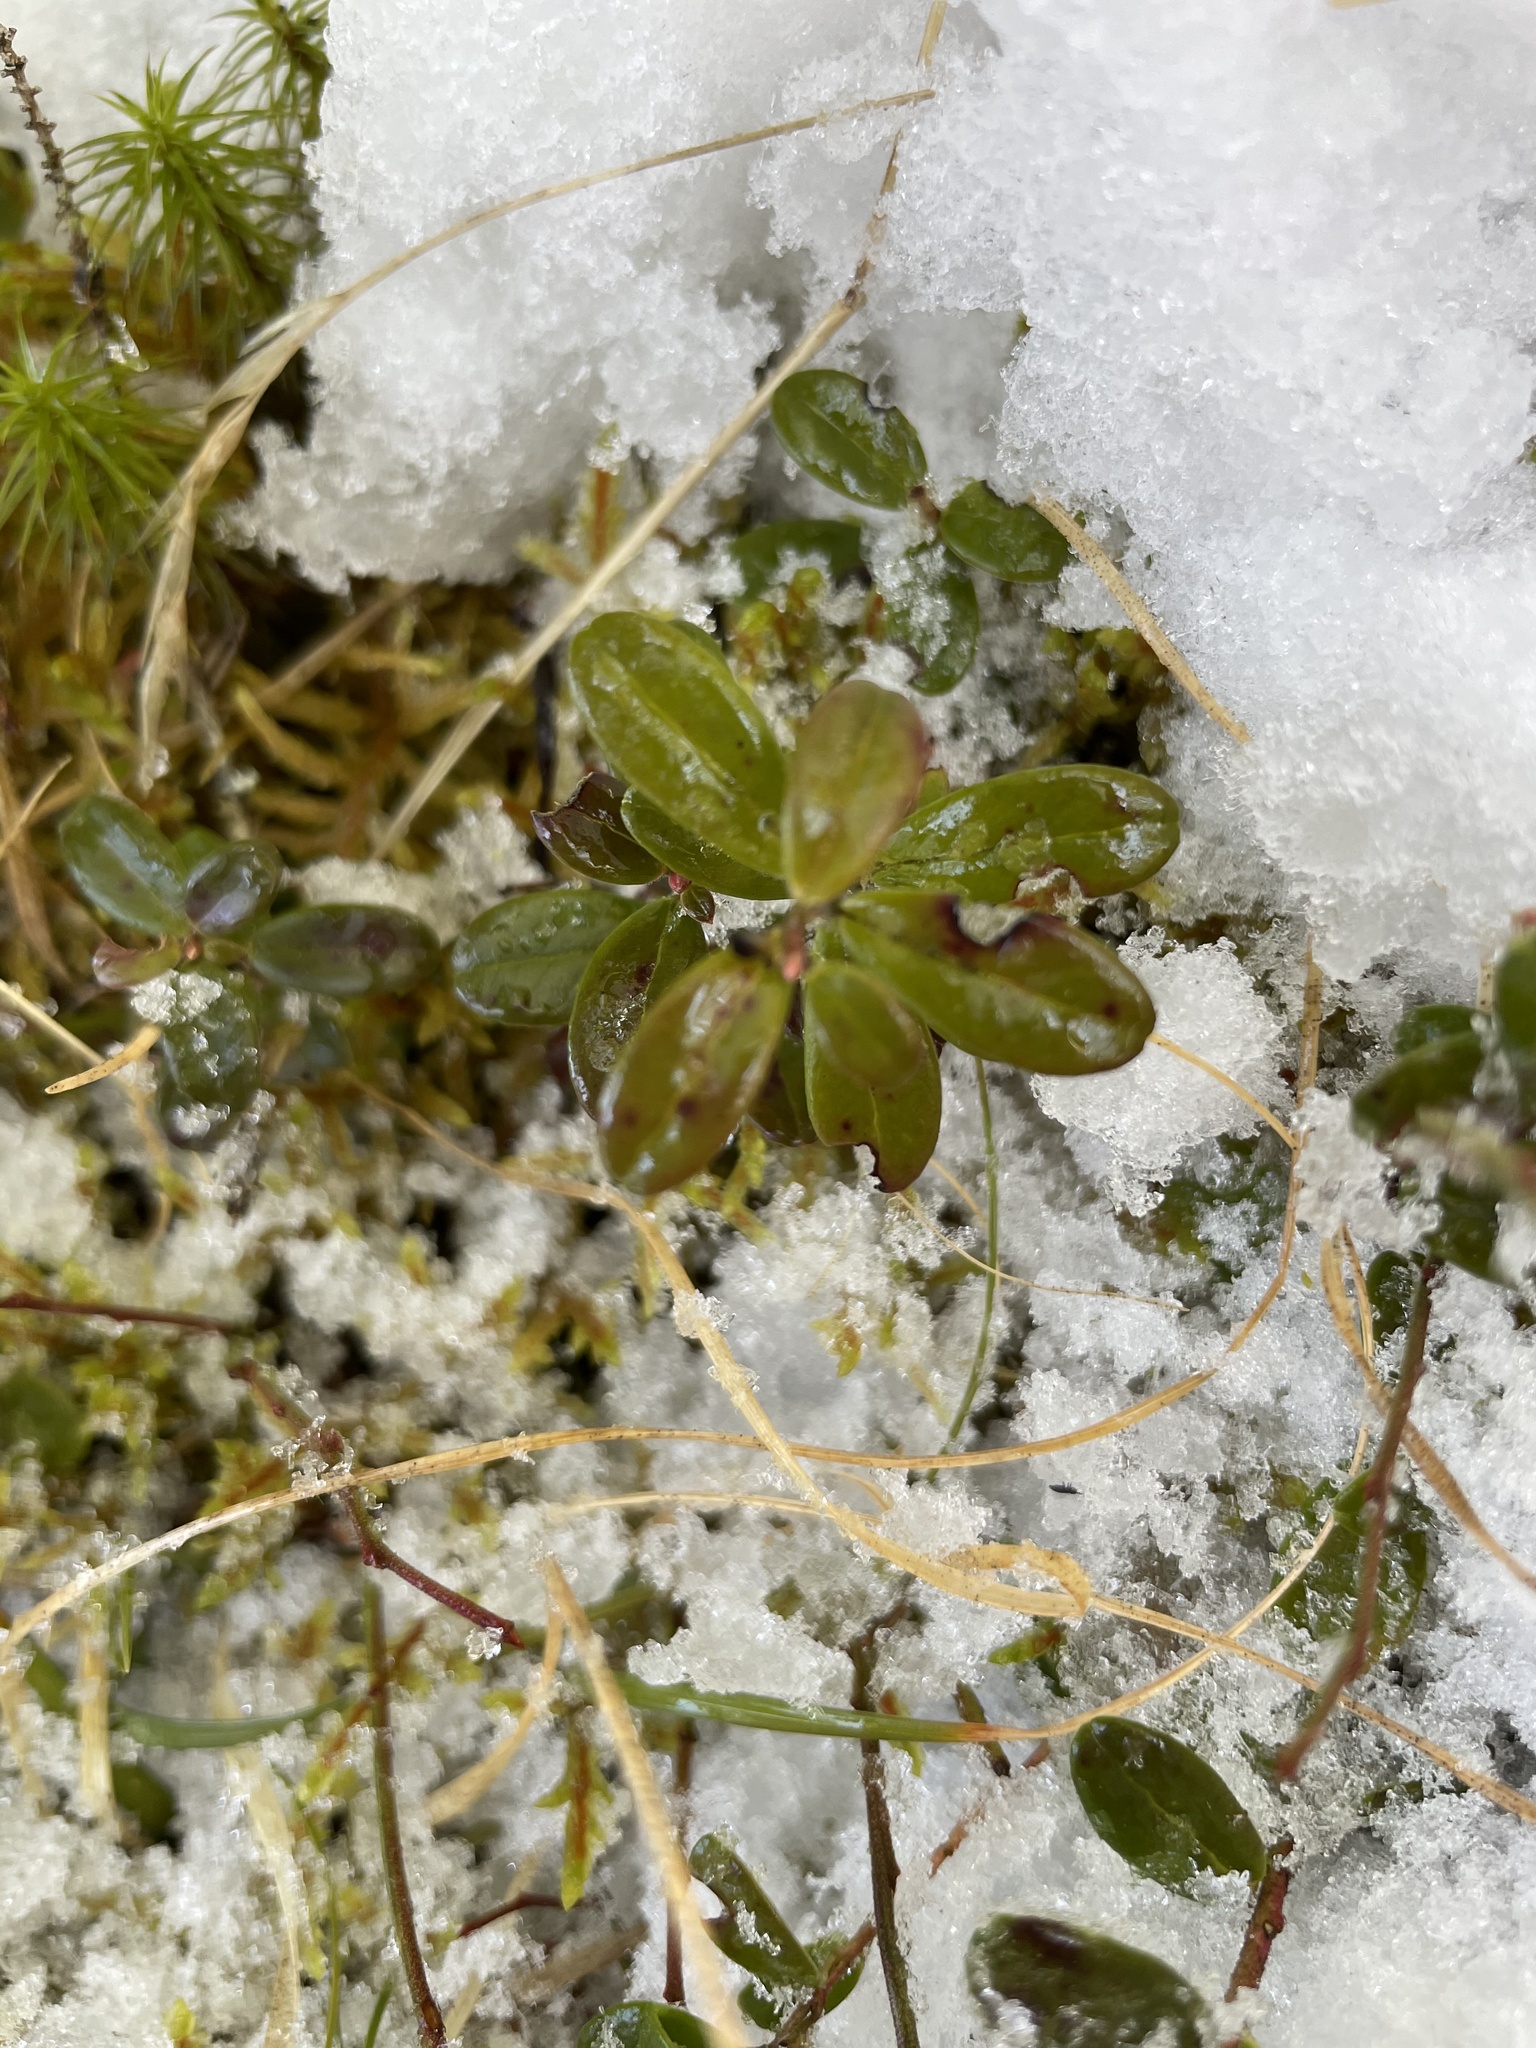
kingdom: Plantae
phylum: Tracheophyta
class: Magnoliopsida
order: Ericales
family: Ericaceae
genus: Vaccinium
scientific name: Vaccinium vitis-idaea
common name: Cowberry
